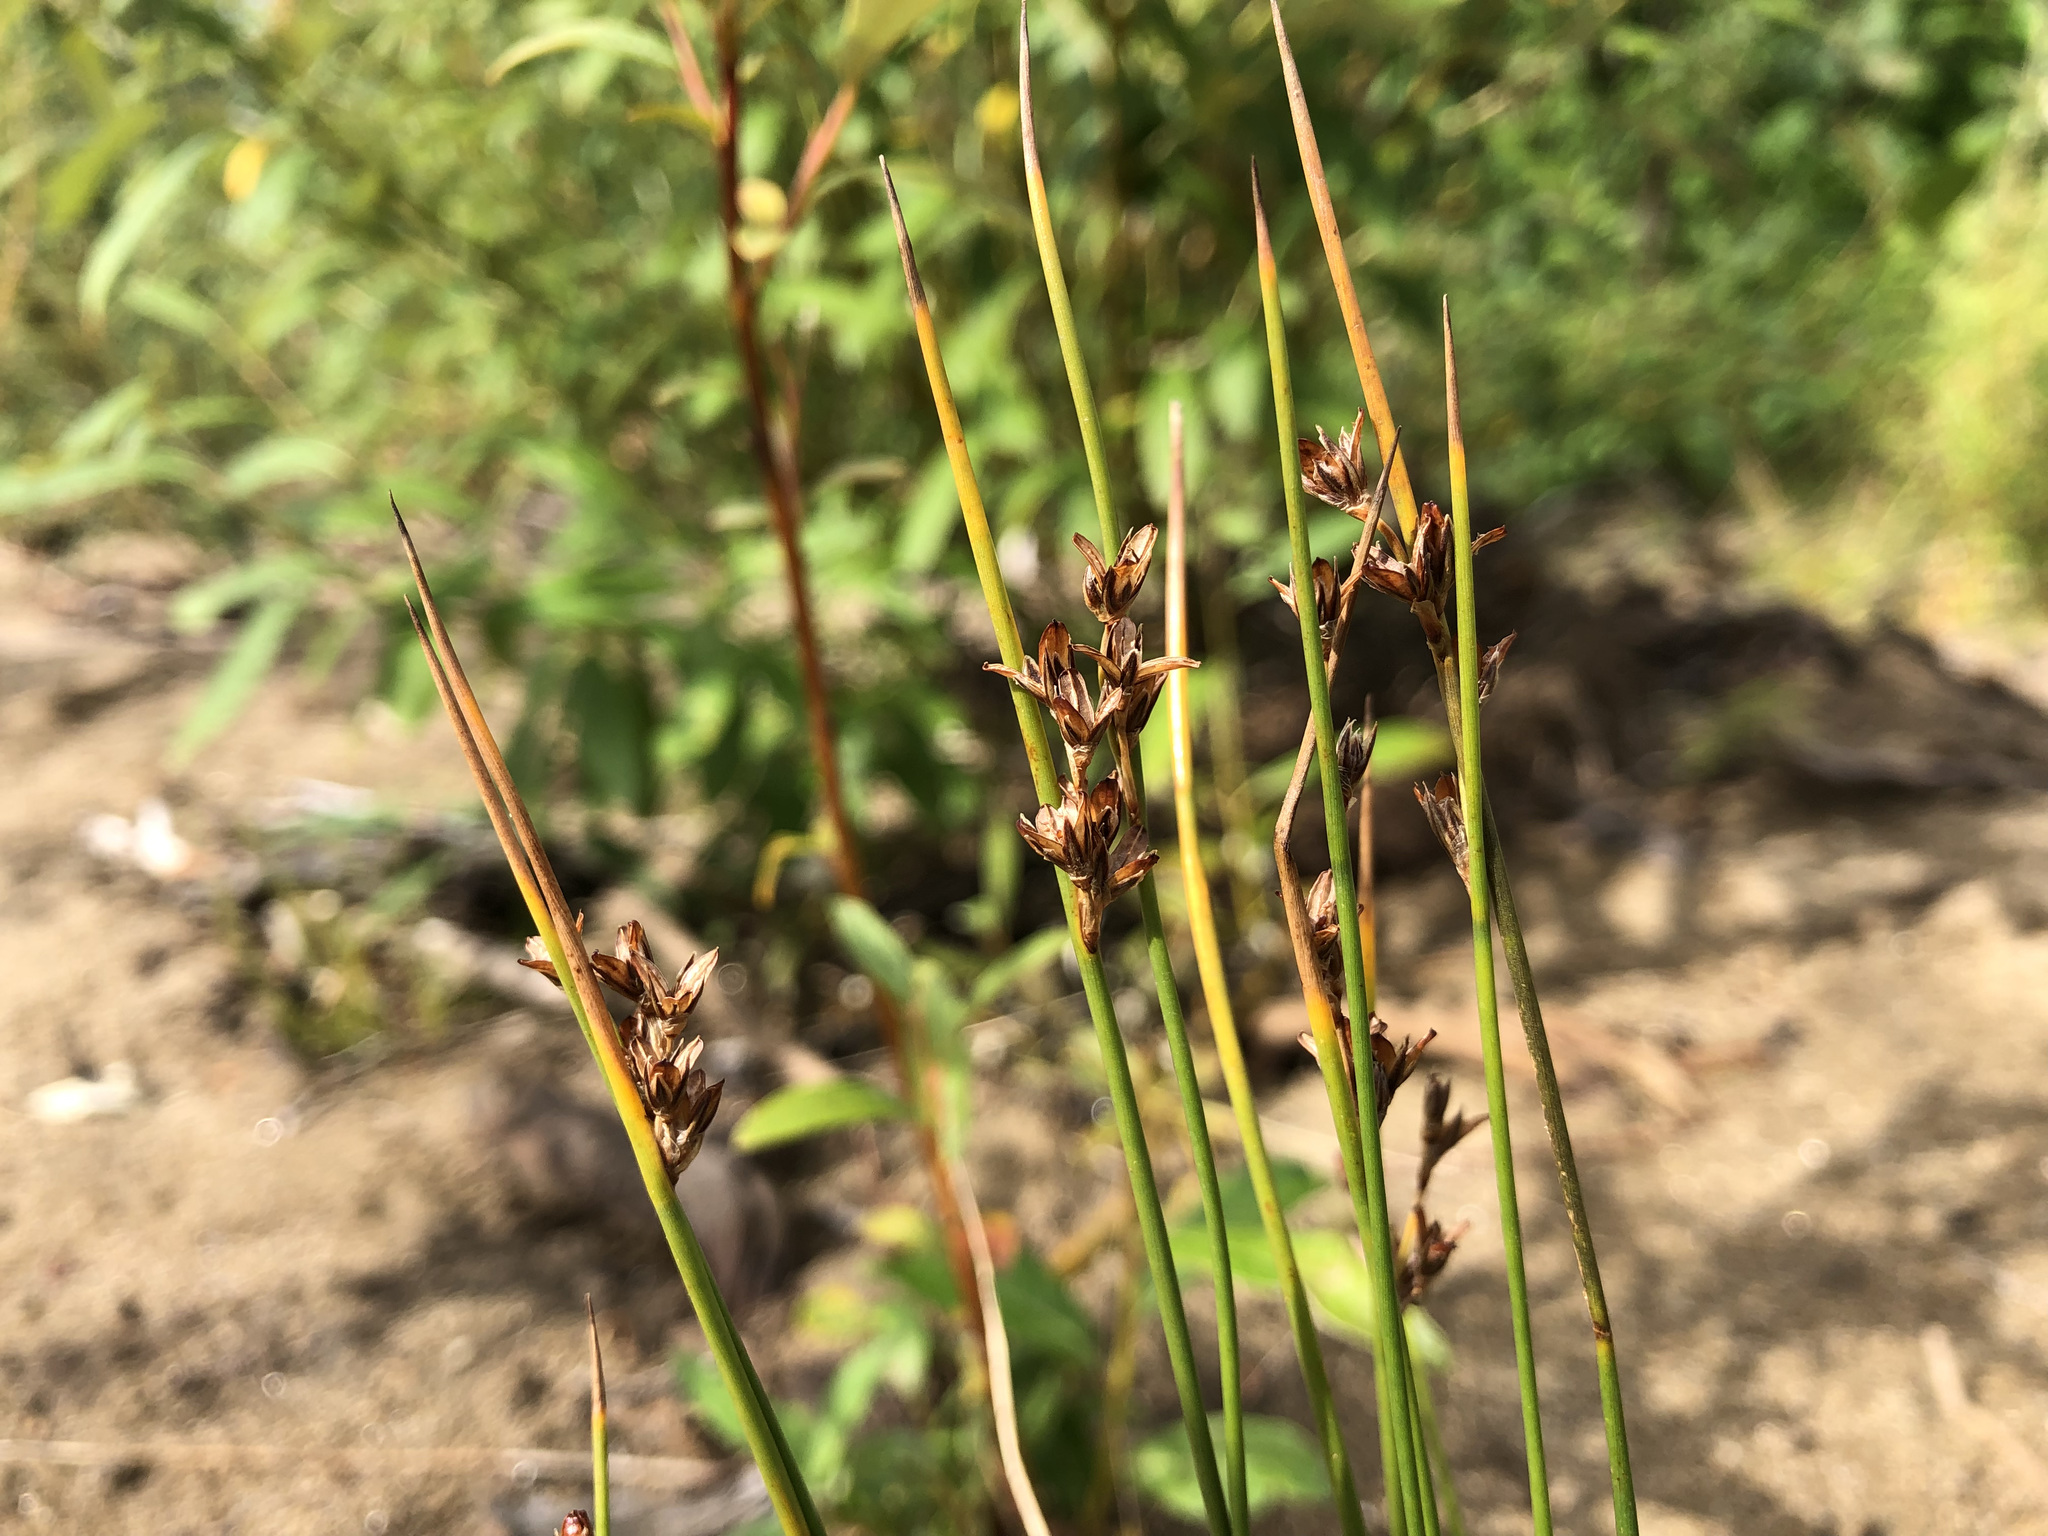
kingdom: Plantae
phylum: Tracheophyta
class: Liliopsida
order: Poales
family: Juncaceae
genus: Juncus
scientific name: Juncus castaneus
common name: Chestnut rush
